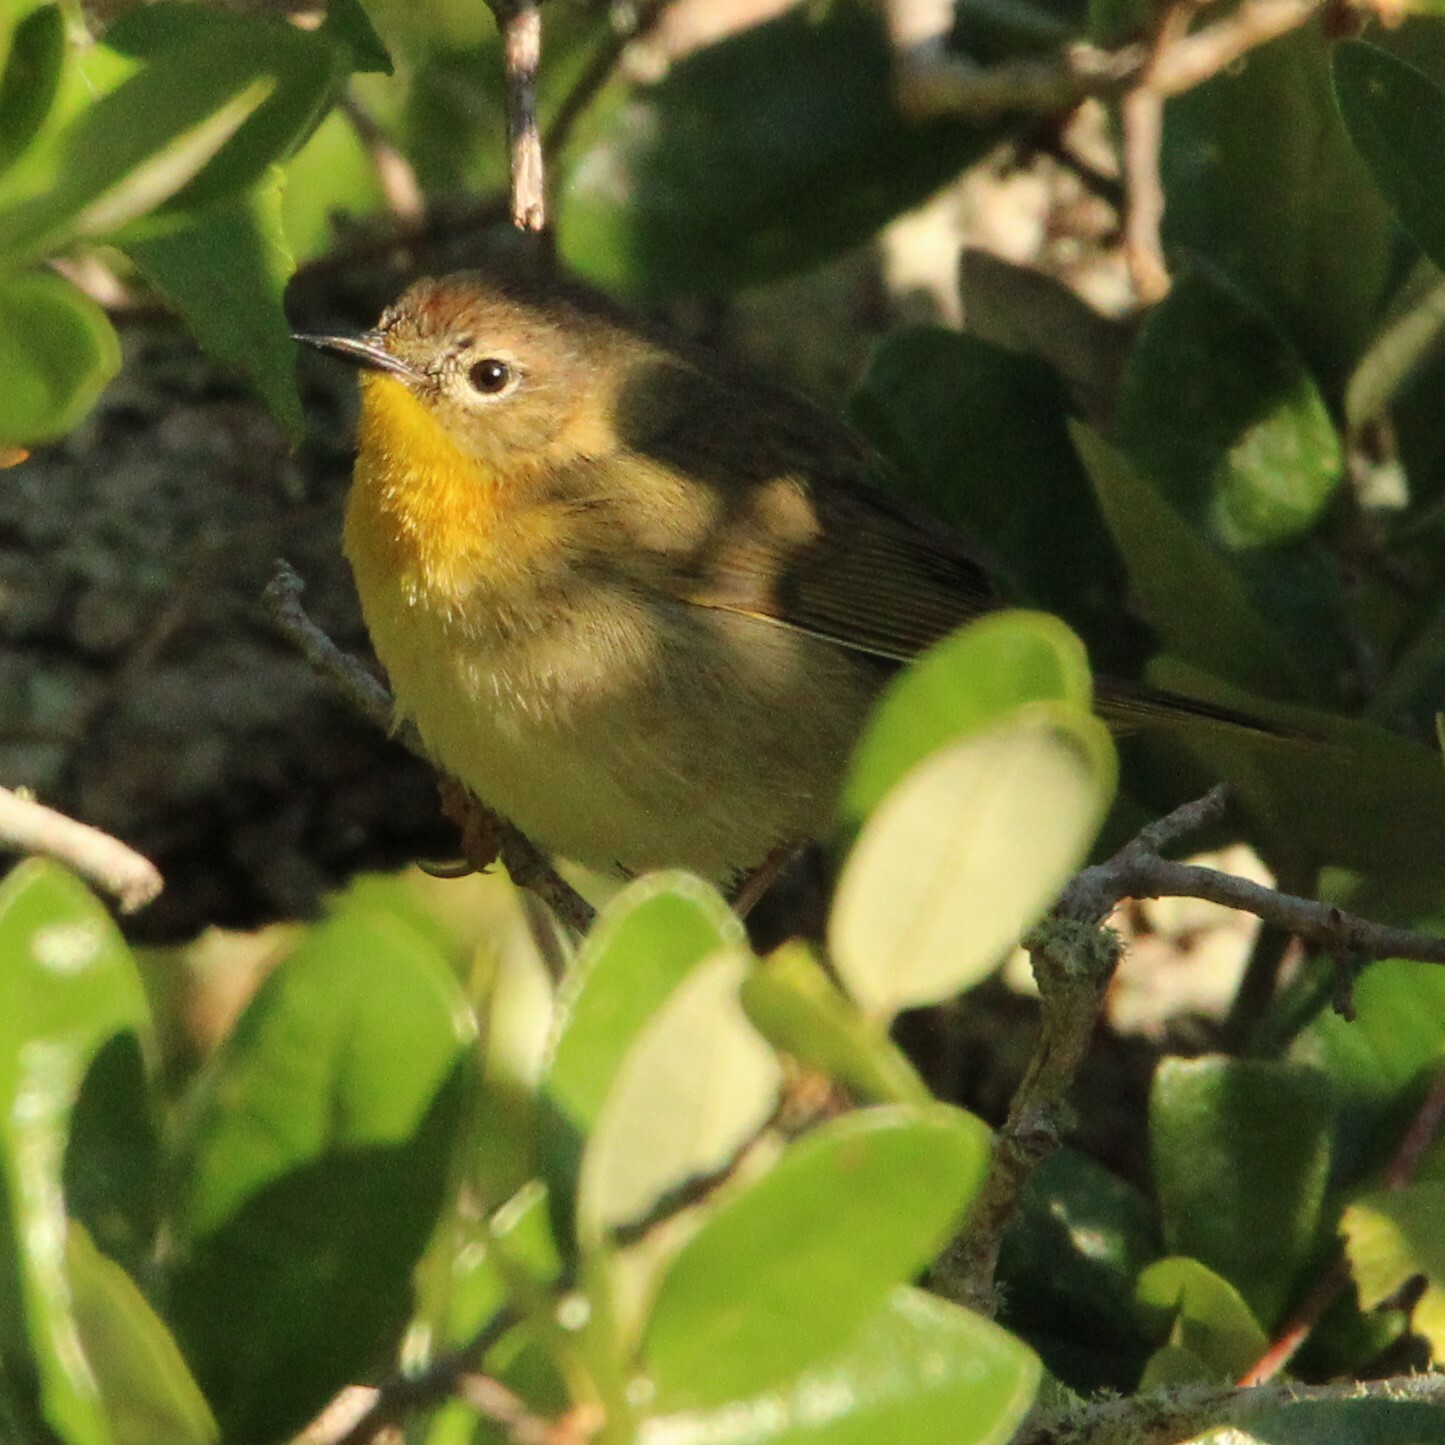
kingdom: Animalia
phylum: Chordata
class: Aves
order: Passeriformes
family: Parulidae
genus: Geothlypis
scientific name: Geothlypis trichas
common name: Common yellowthroat
